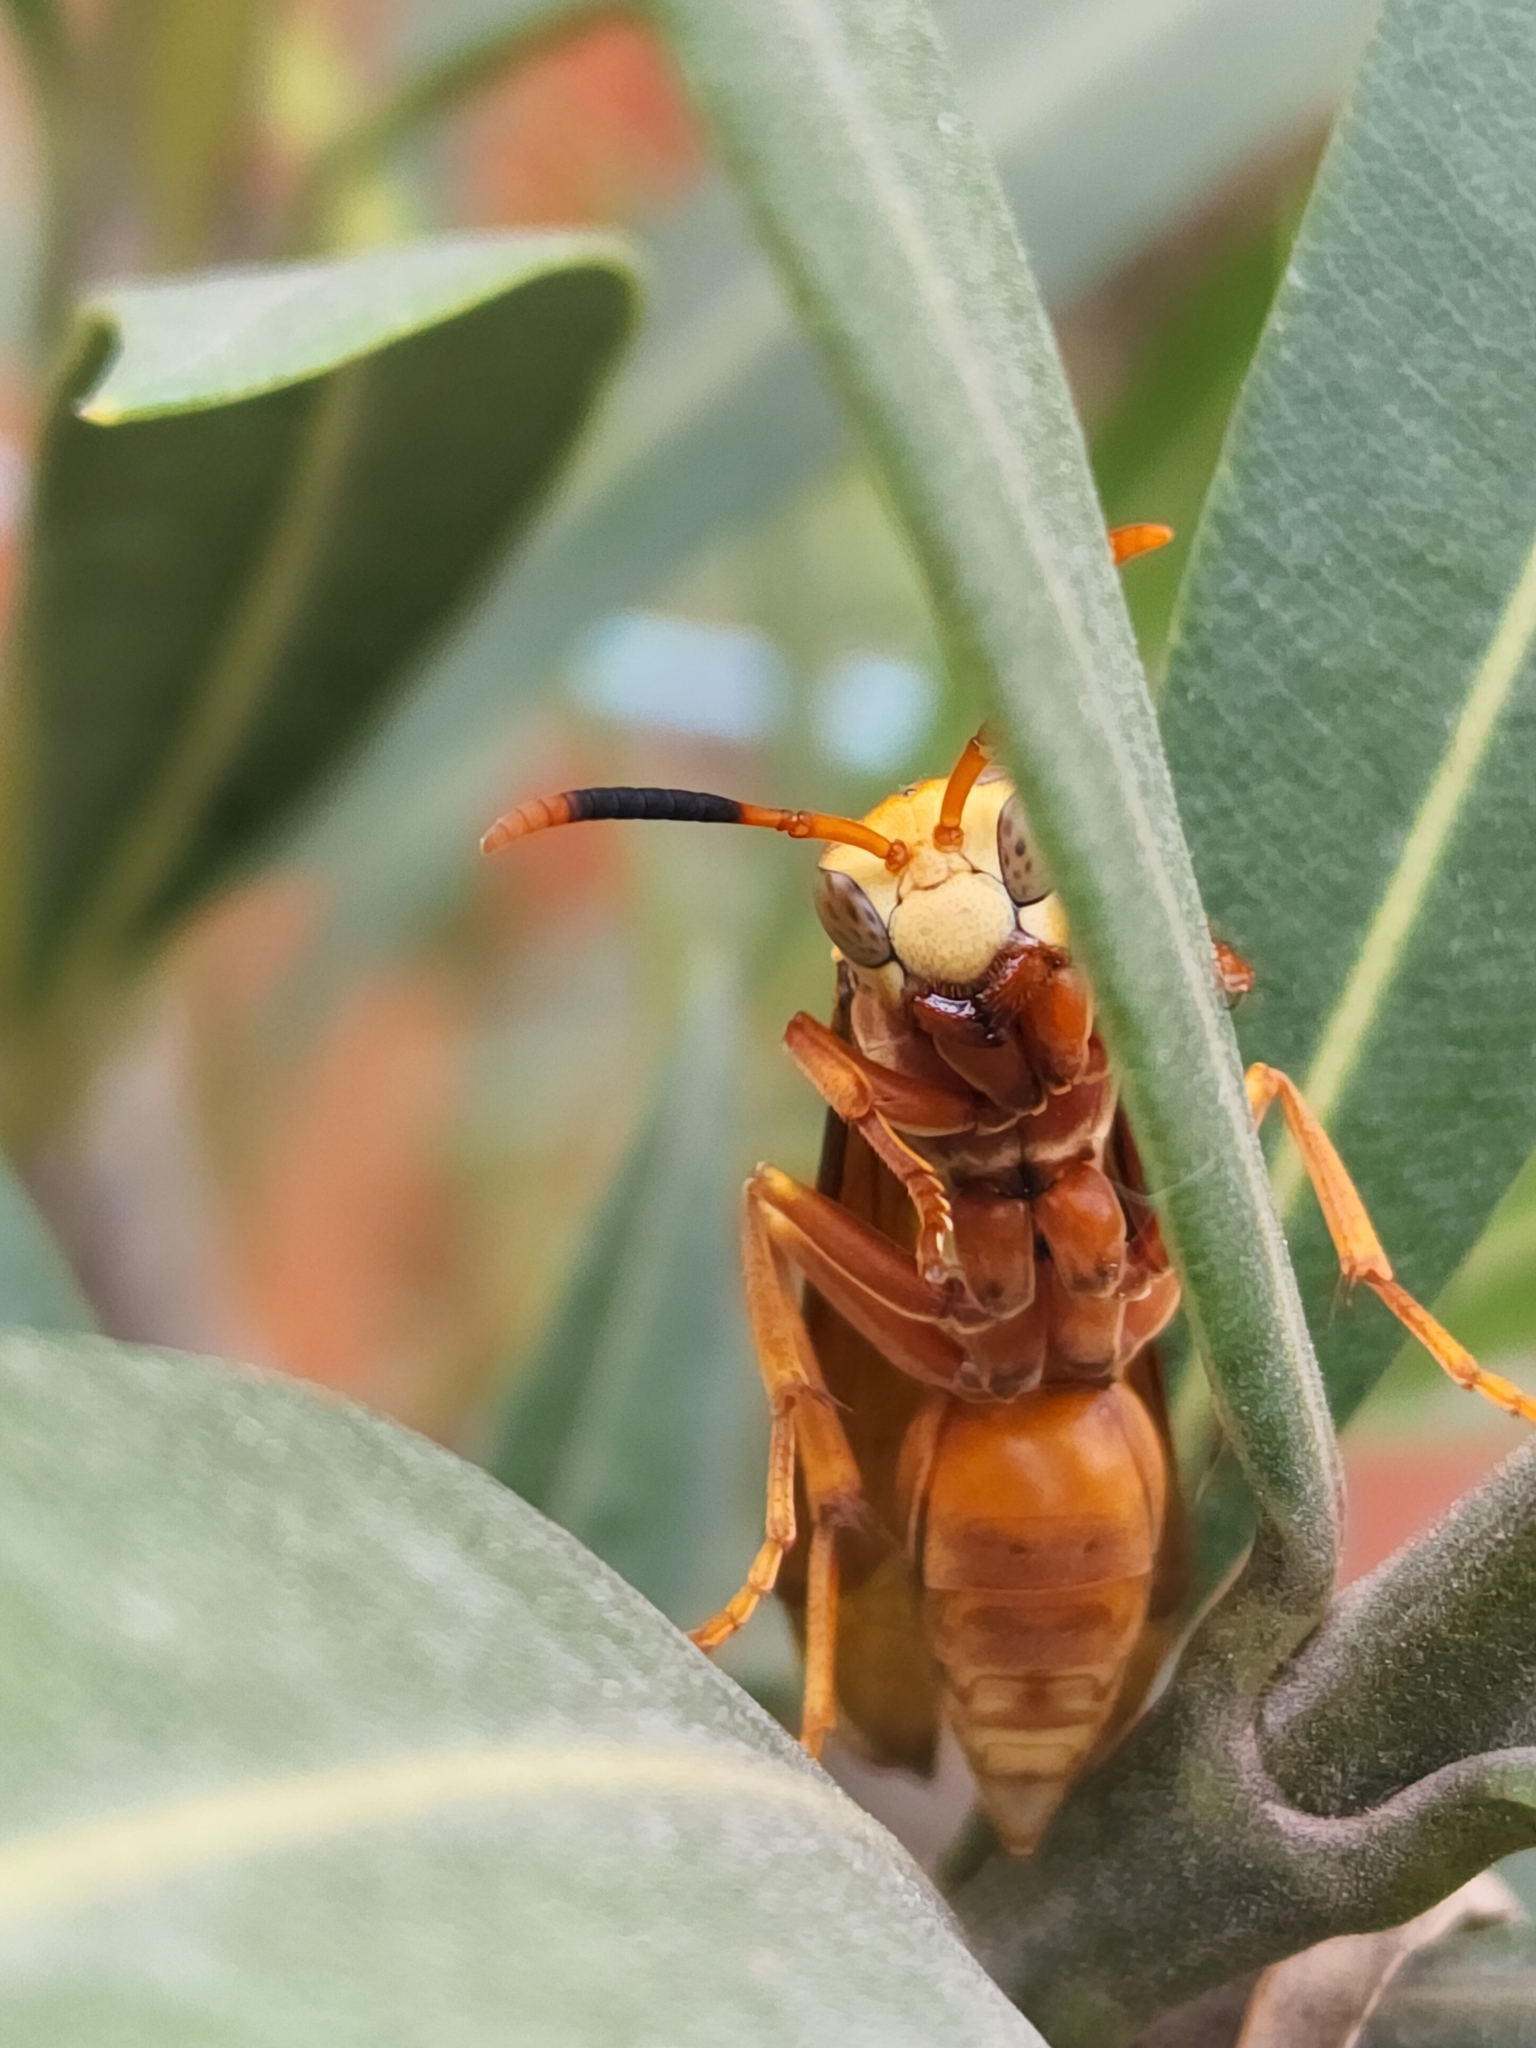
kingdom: Animalia
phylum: Arthropoda
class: Insecta
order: Hymenoptera
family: Eumenidae
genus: Polistes
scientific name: Polistes cavapyta
